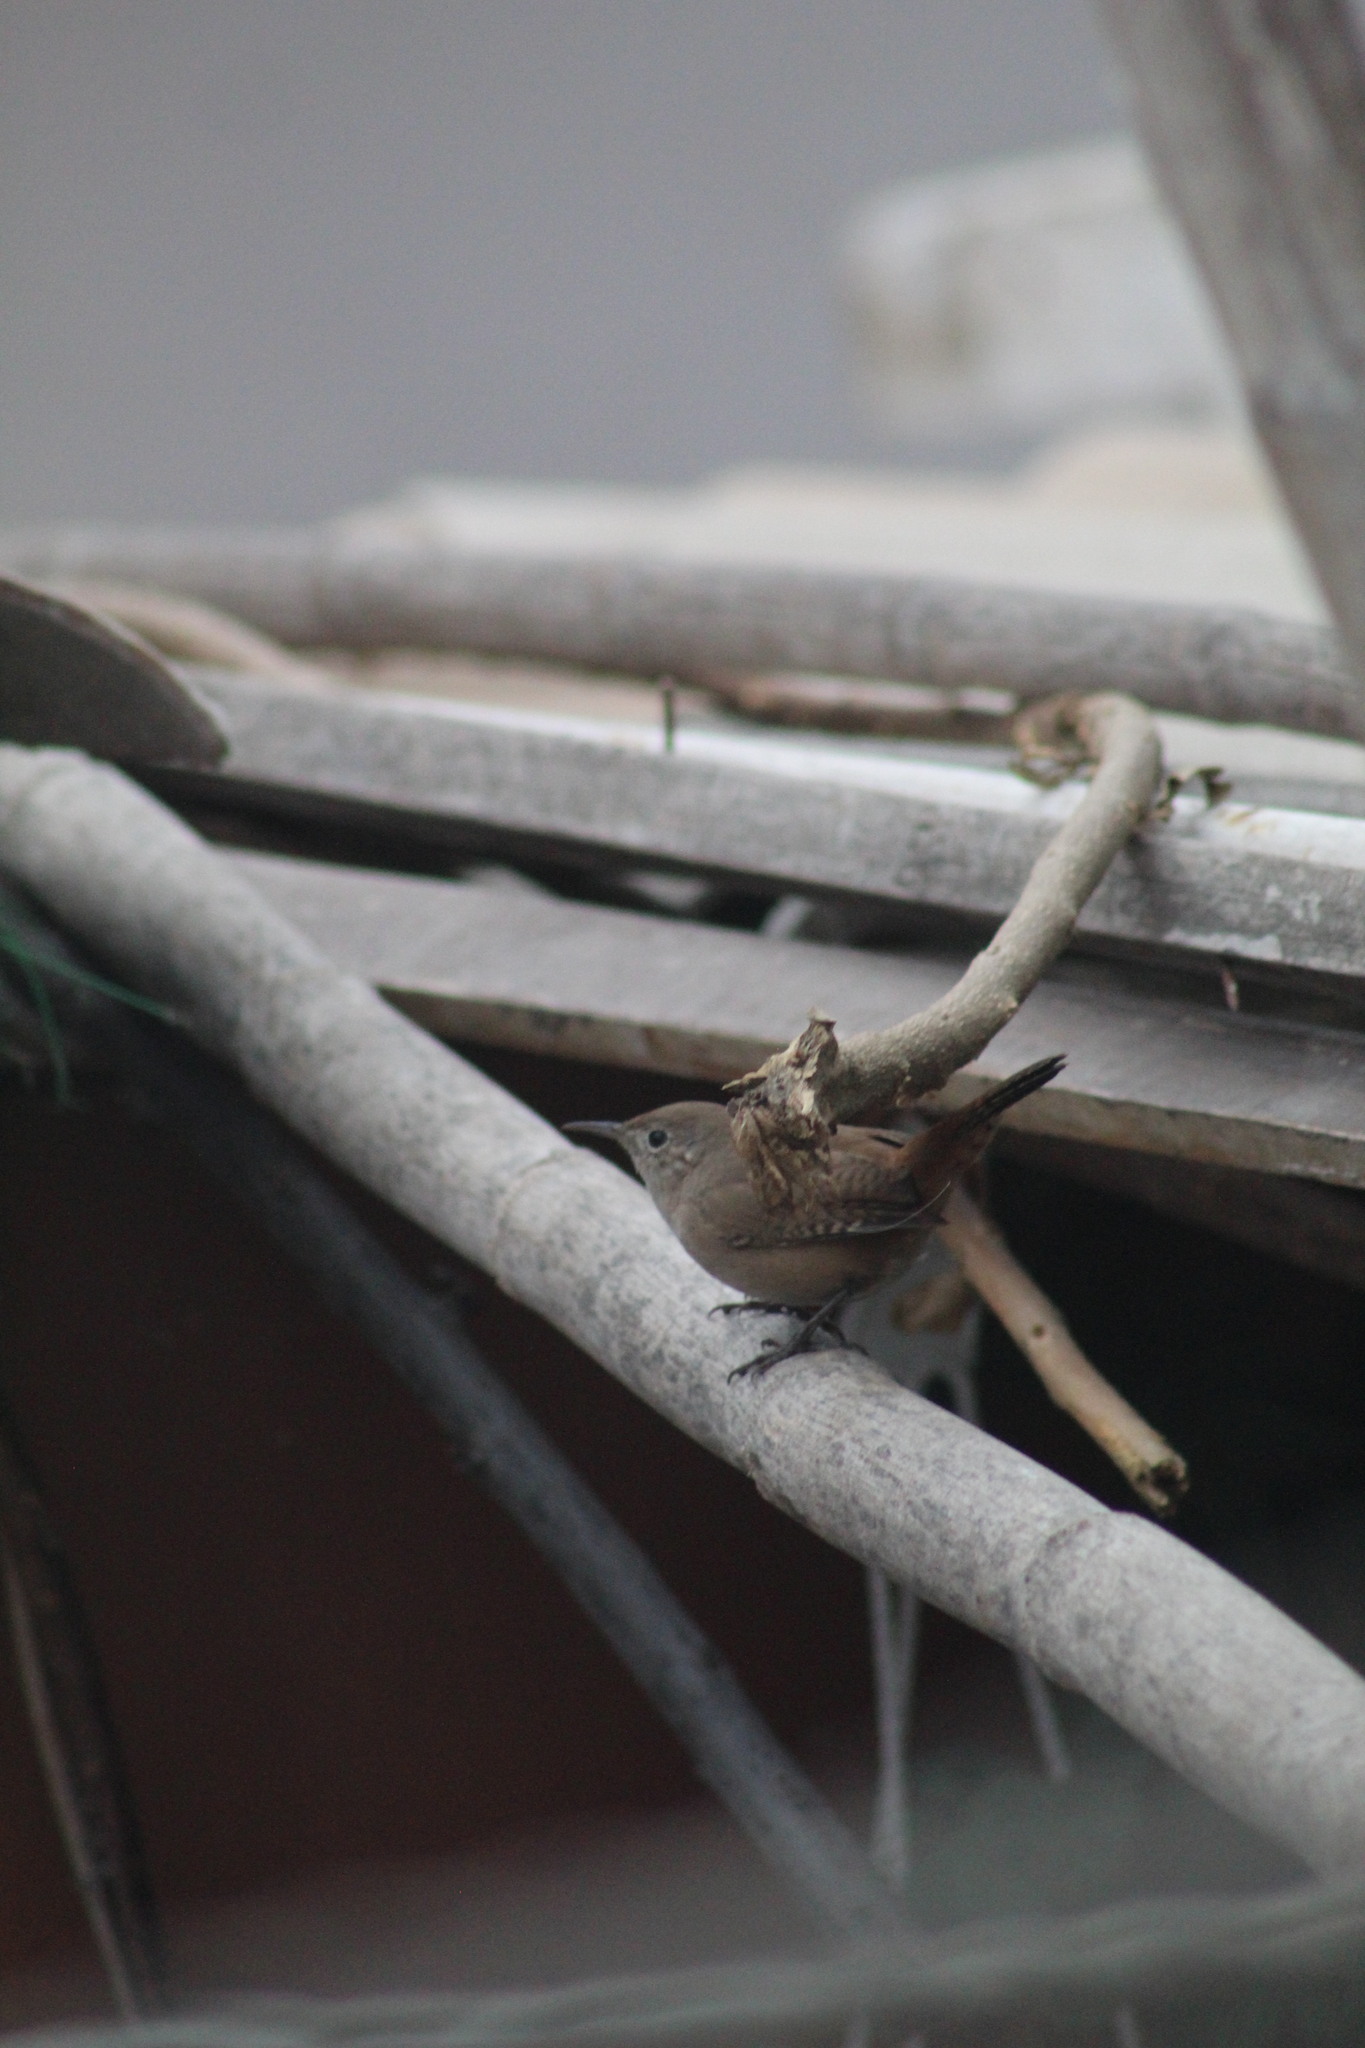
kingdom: Animalia
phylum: Chordata
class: Aves
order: Passeriformes
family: Troglodytidae
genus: Troglodytes
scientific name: Troglodytes aedon
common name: House wren
